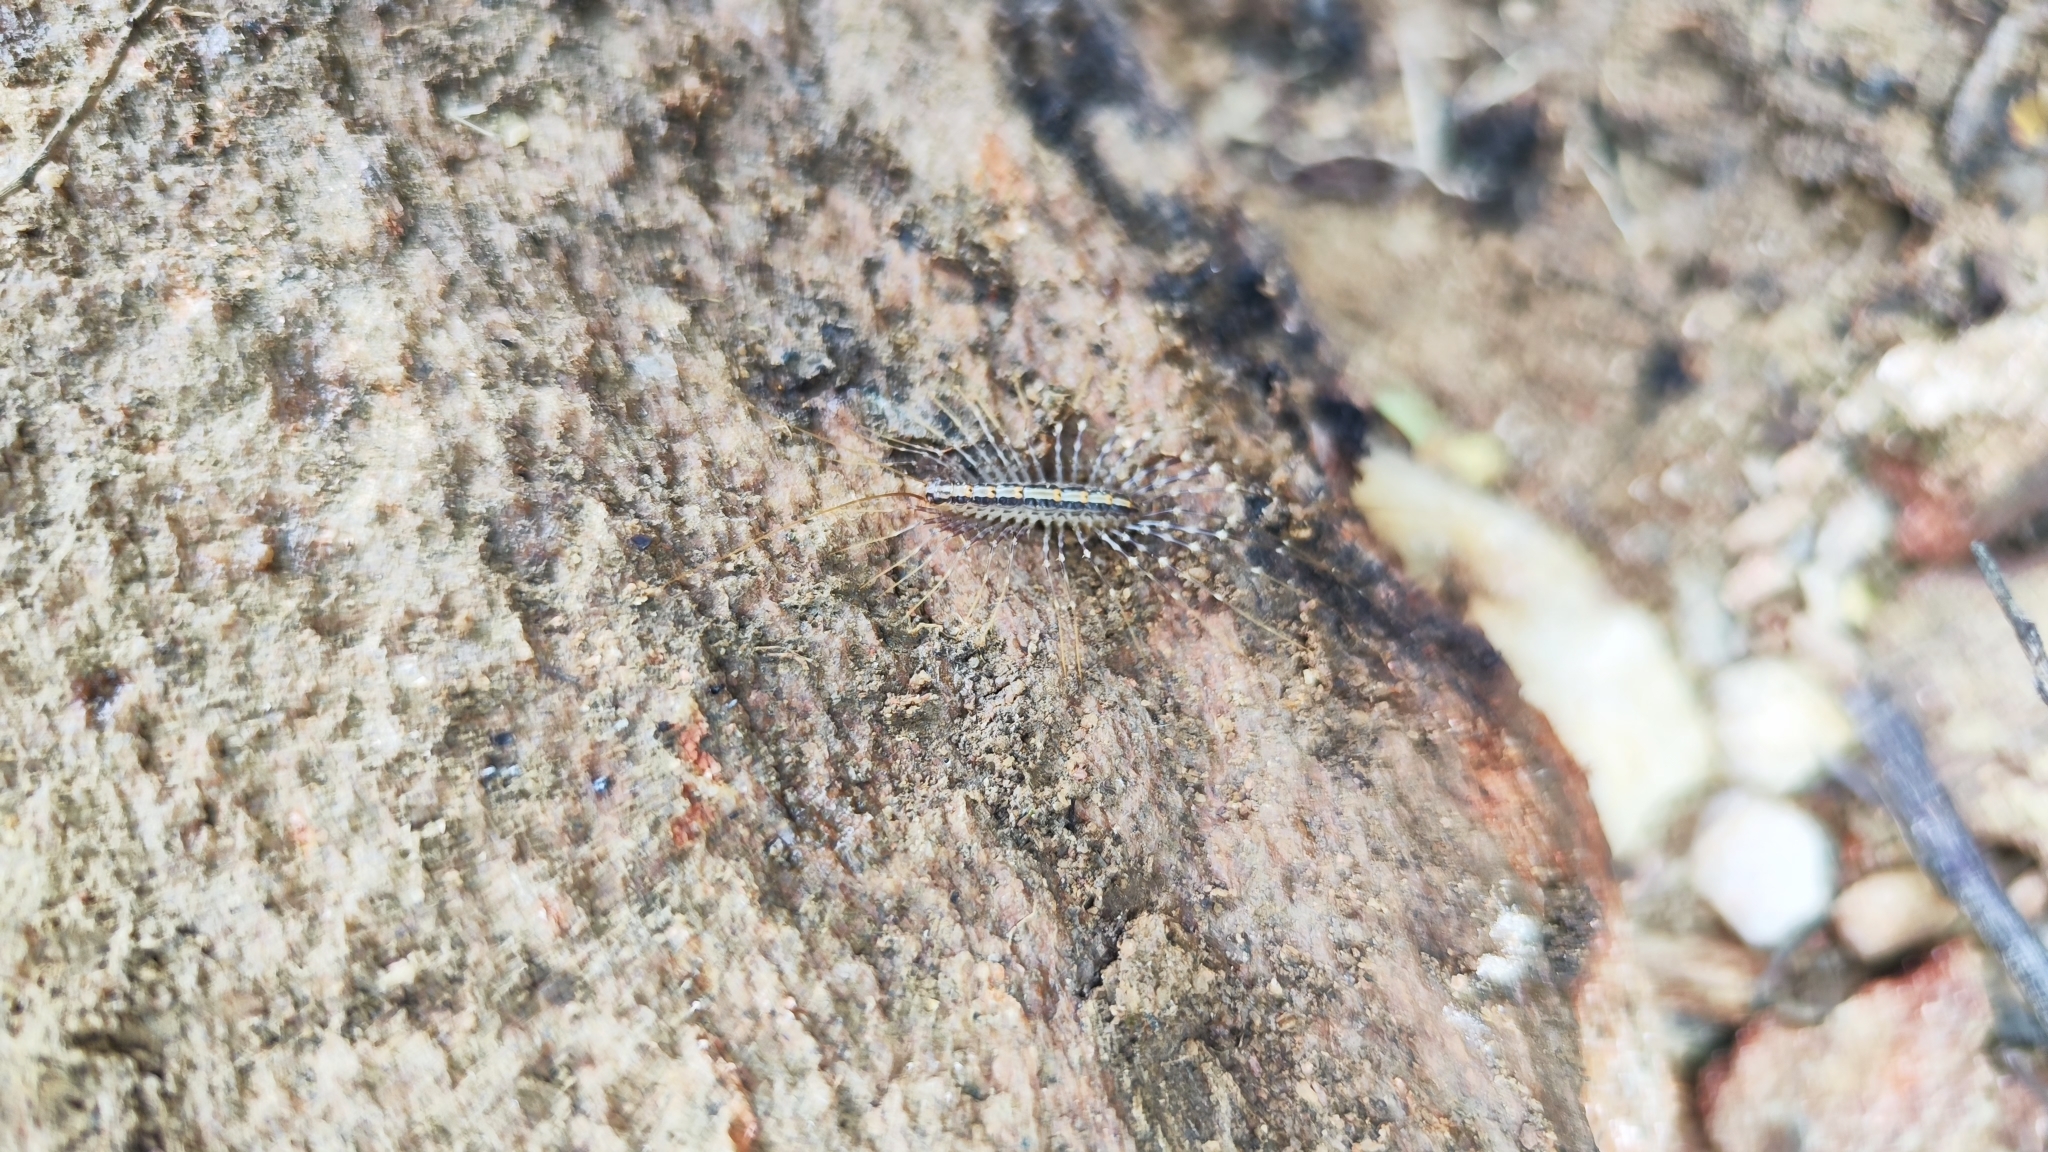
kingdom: Animalia
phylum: Arthropoda
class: Chilopoda
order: Scutigeromorpha
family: Pselliodidae
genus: Sphendononema
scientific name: Sphendononema guildingii
